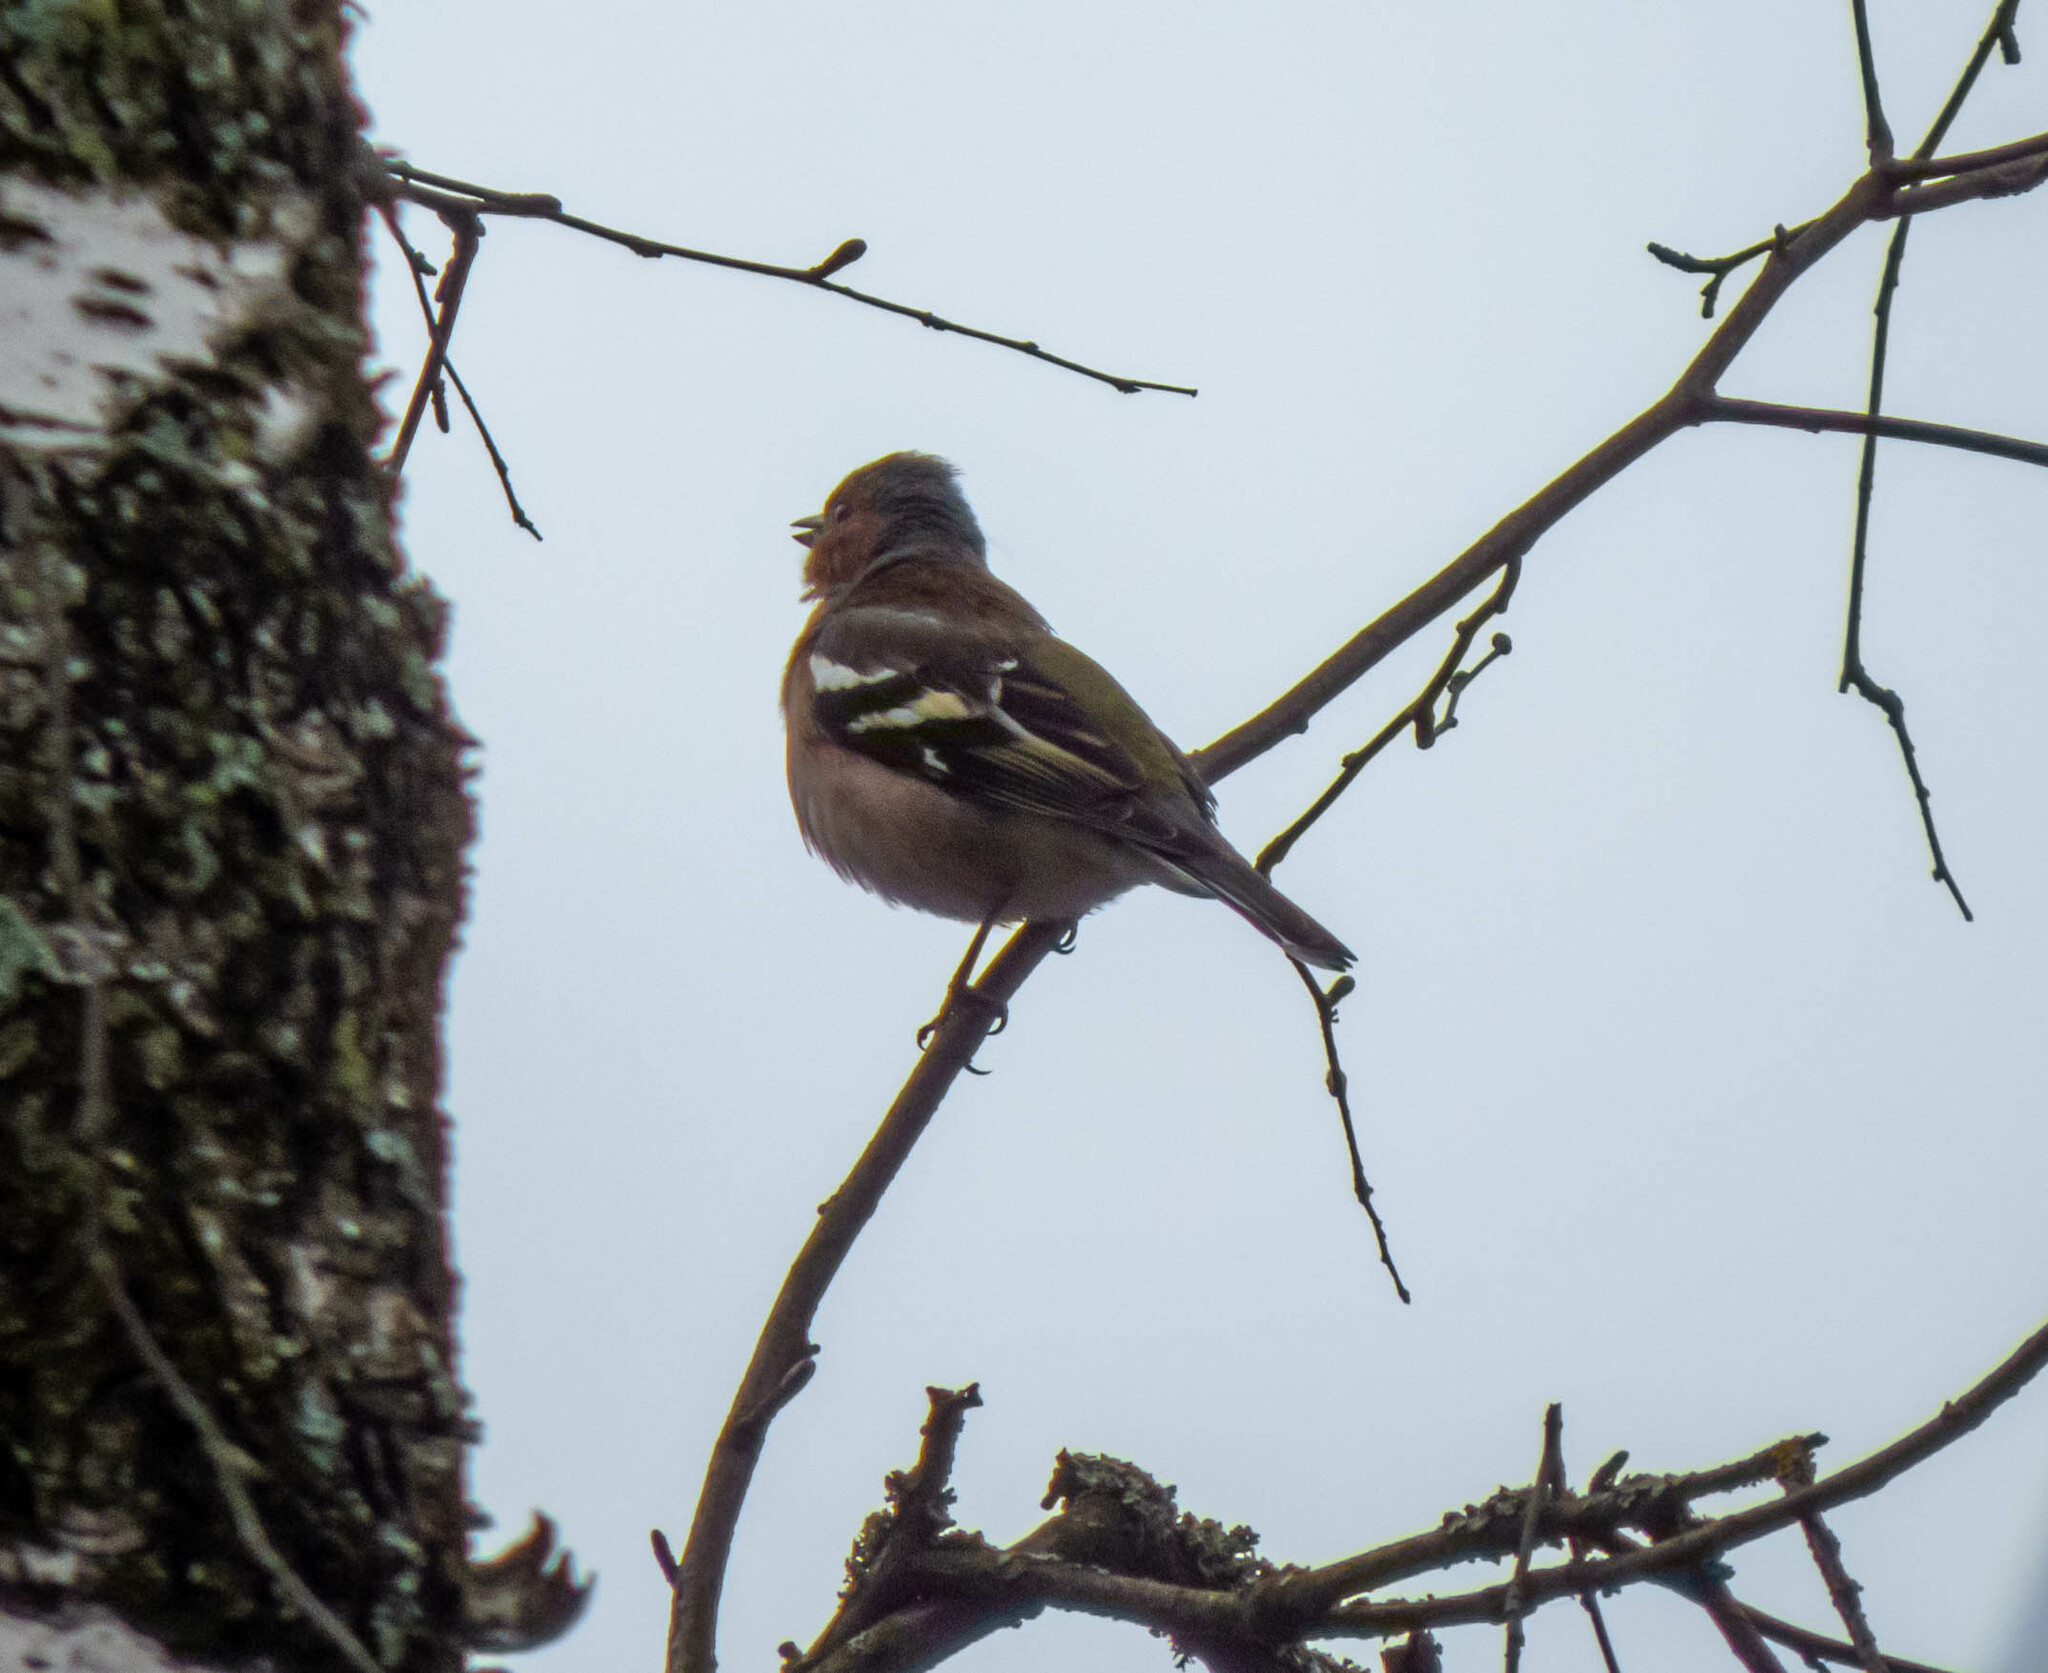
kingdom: Animalia
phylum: Chordata
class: Aves
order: Passeriformes
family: Fringillidae
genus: Fringilla
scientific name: Fringilla coelebs
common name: Common chaffinch
